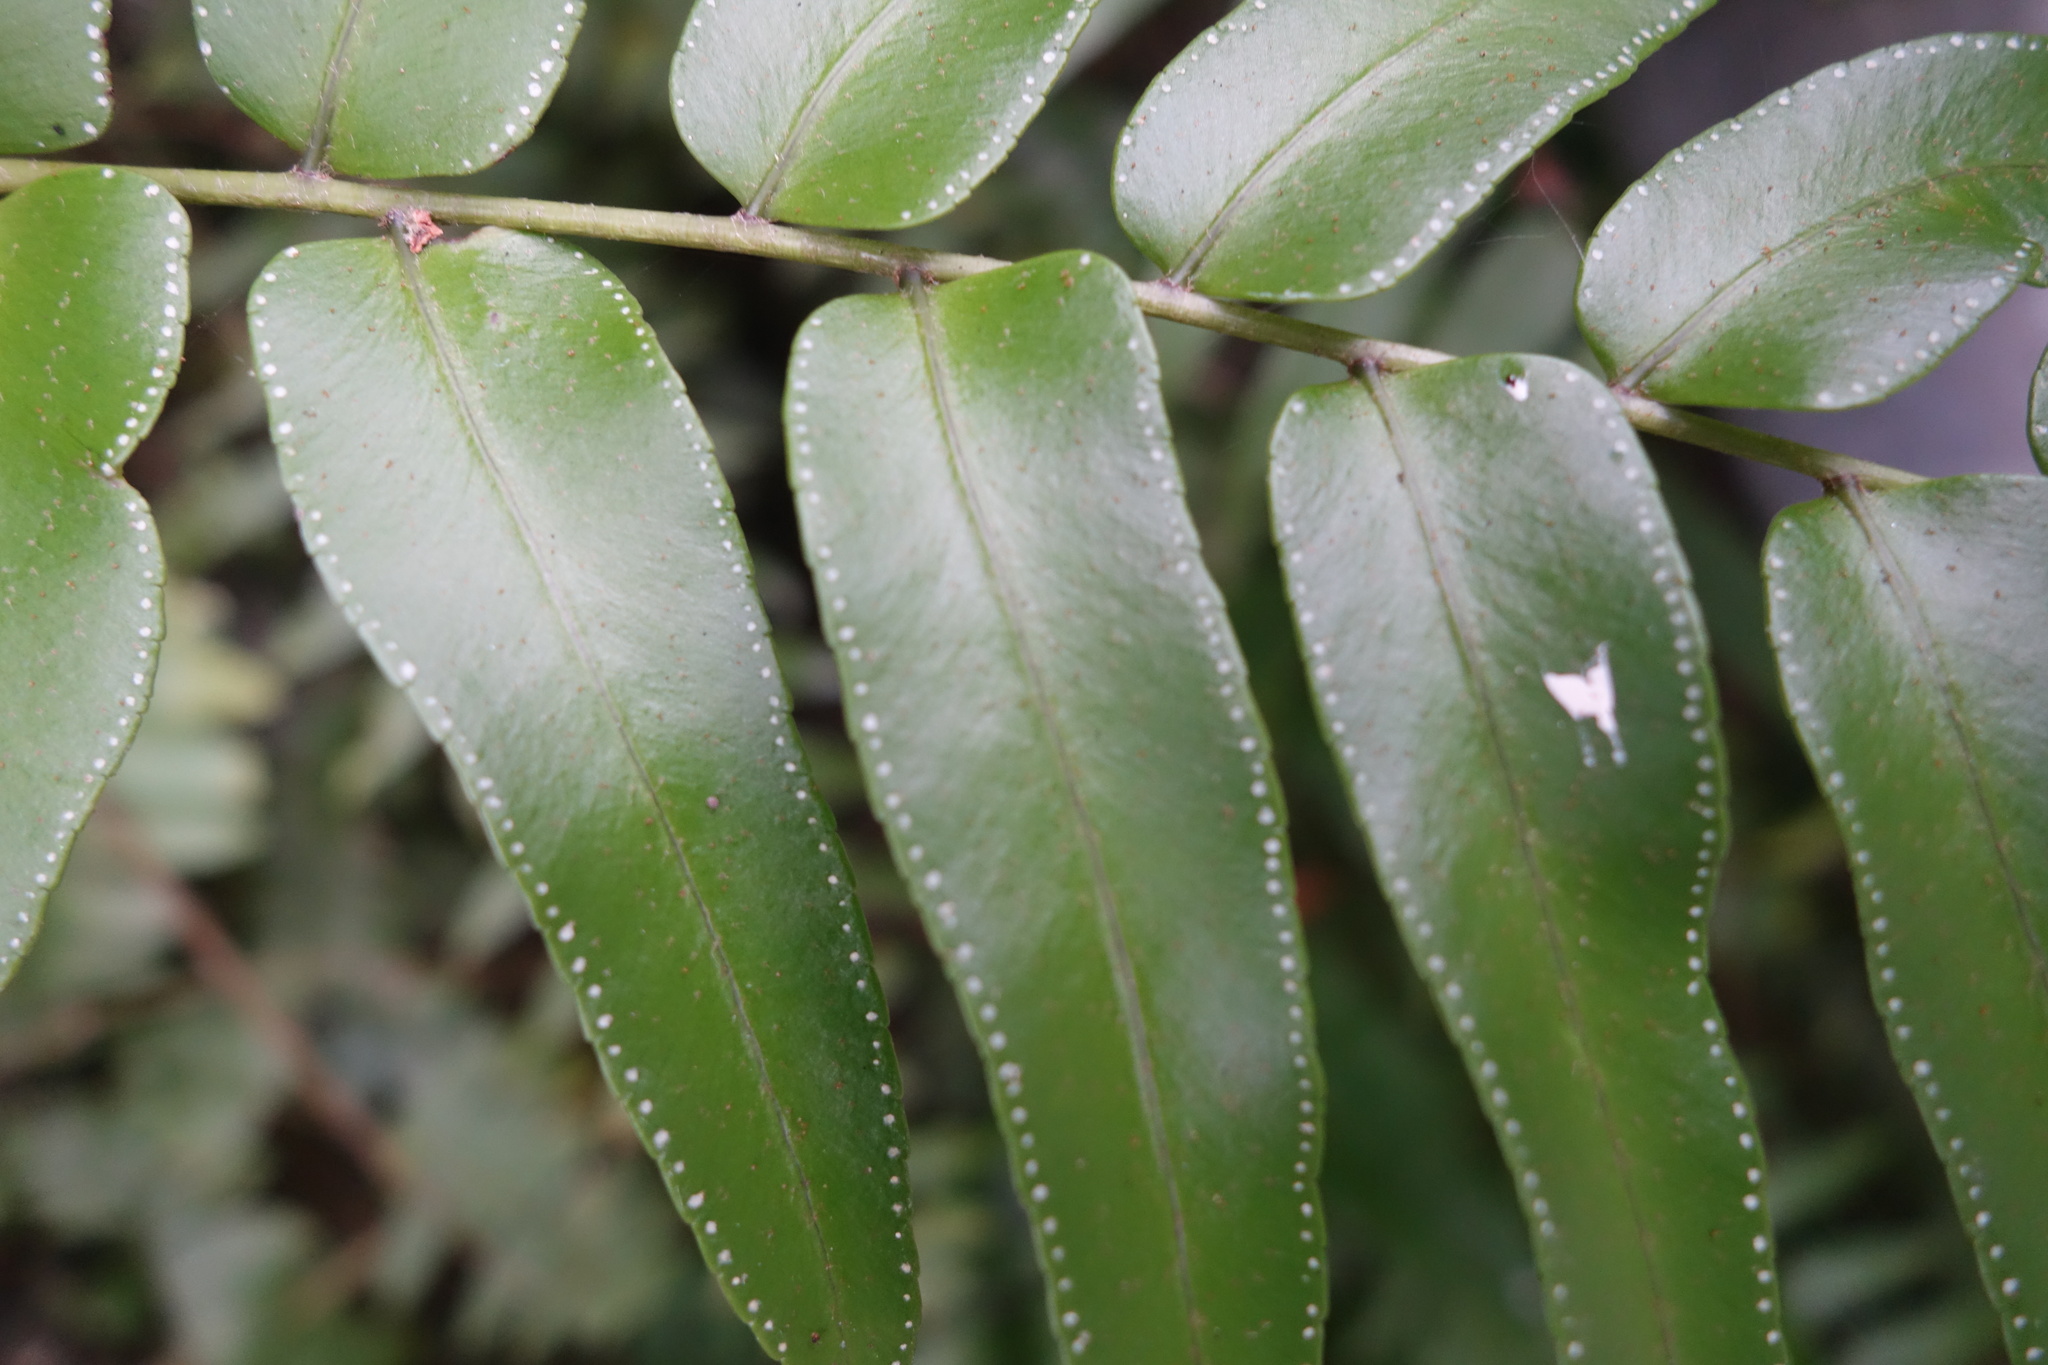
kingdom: Plantae
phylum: Tracheophyta
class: Polypodiopsida
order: Polypodiales
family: Nephrolepidaceae
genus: Nephrolepis
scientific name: Nephrolepis biserrata
